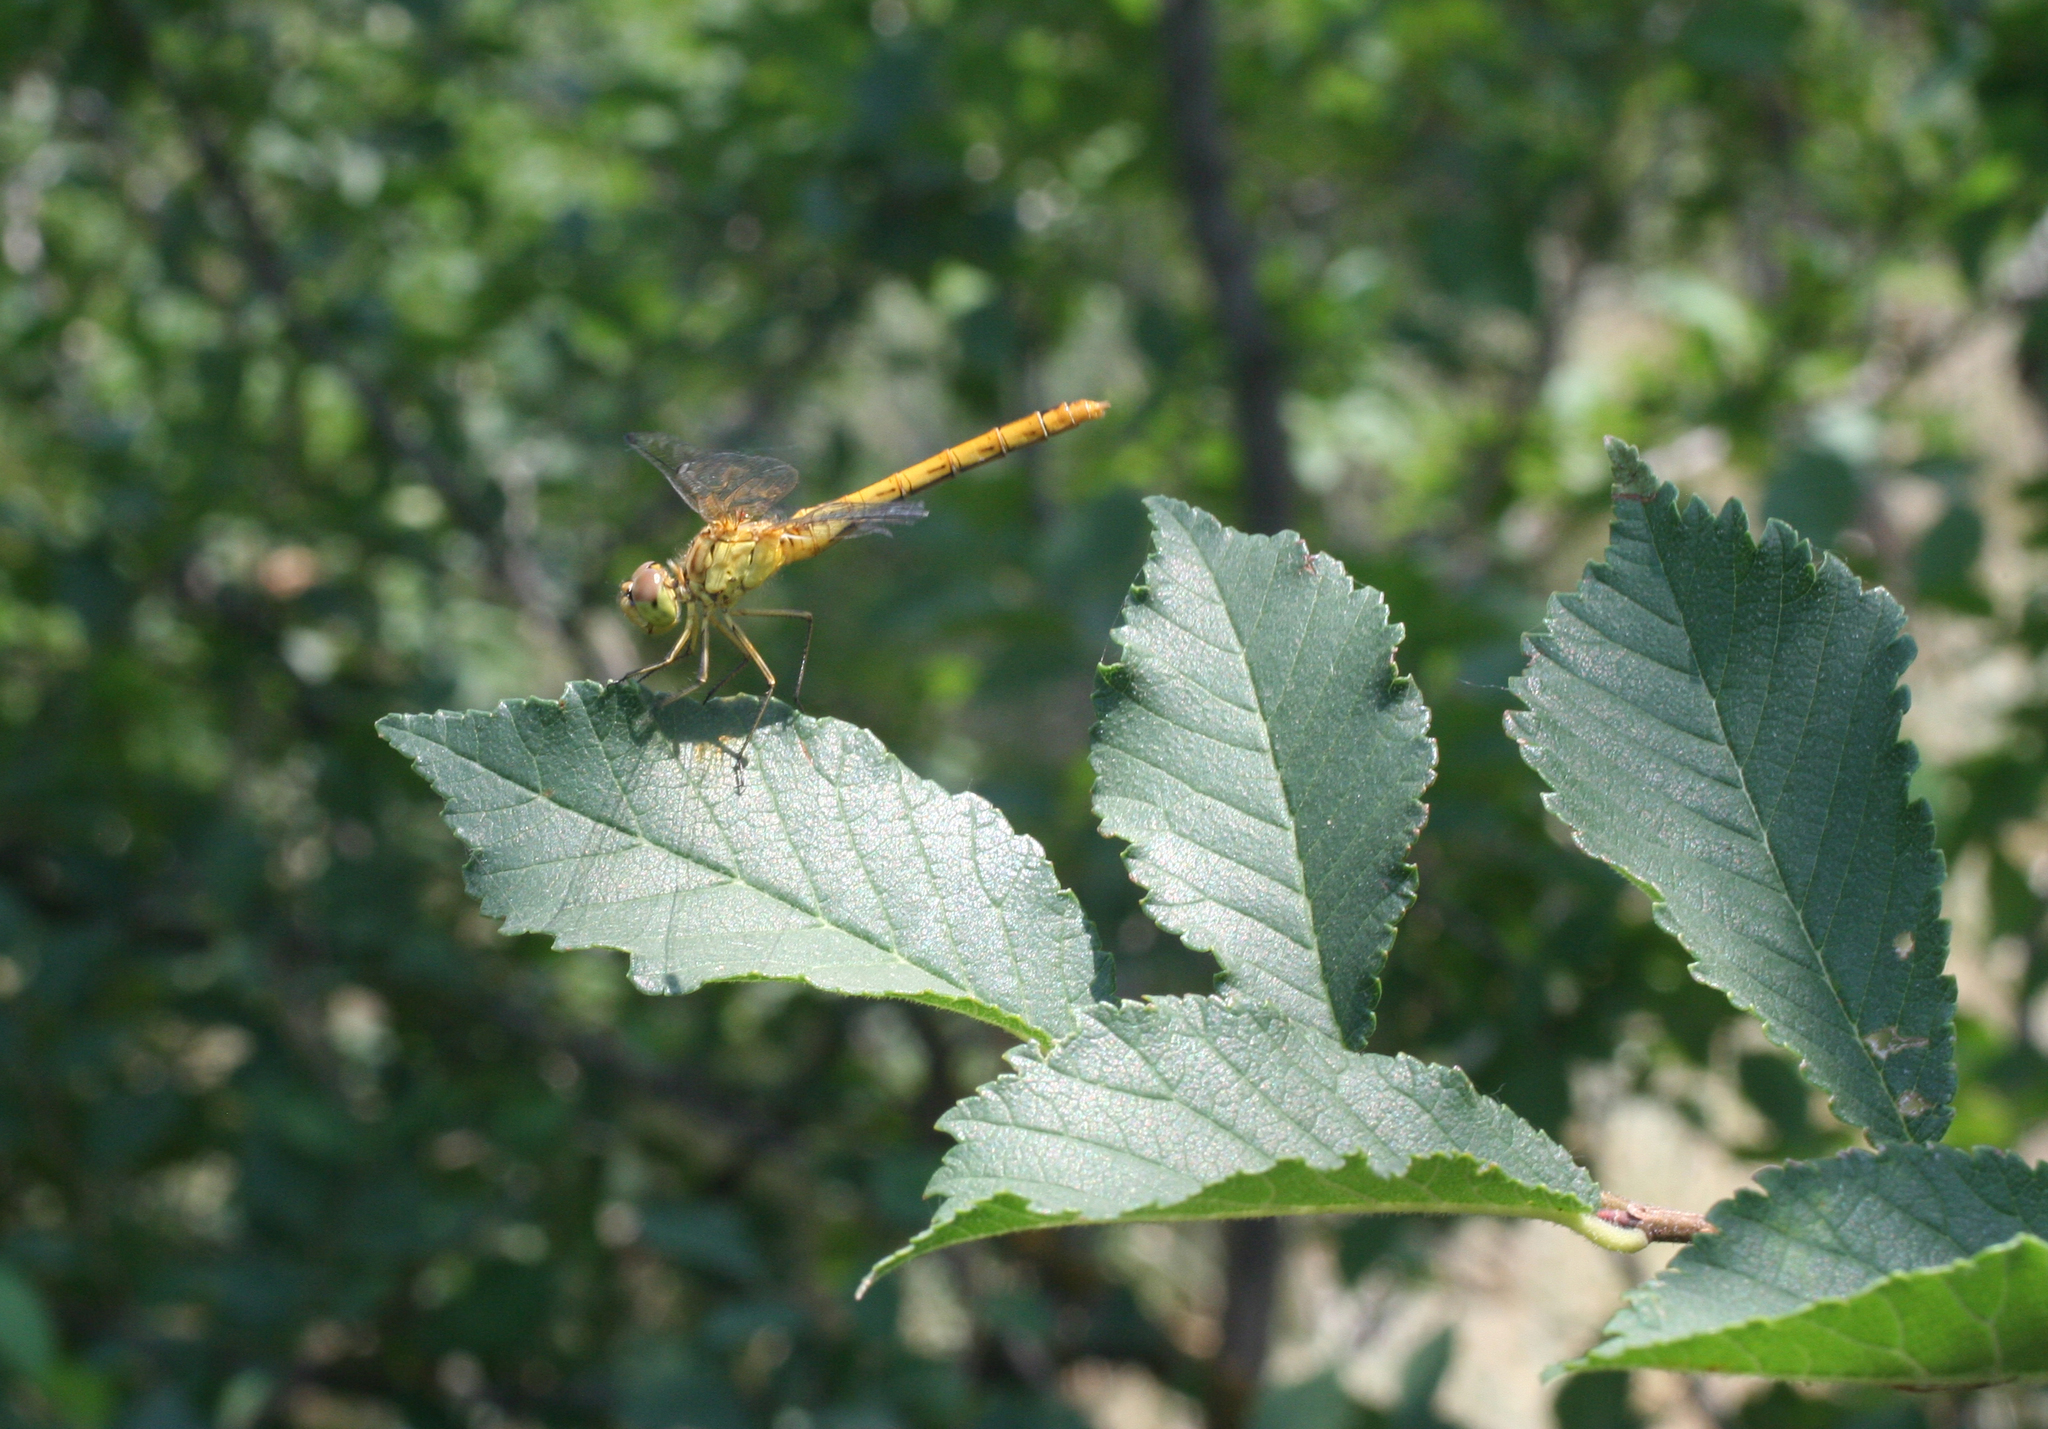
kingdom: Animalia
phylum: Arthropoda
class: Insecta
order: Odonata
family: Libellulidae
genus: Sympetrum
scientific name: Sympetrum meridionale
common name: Southern darter
